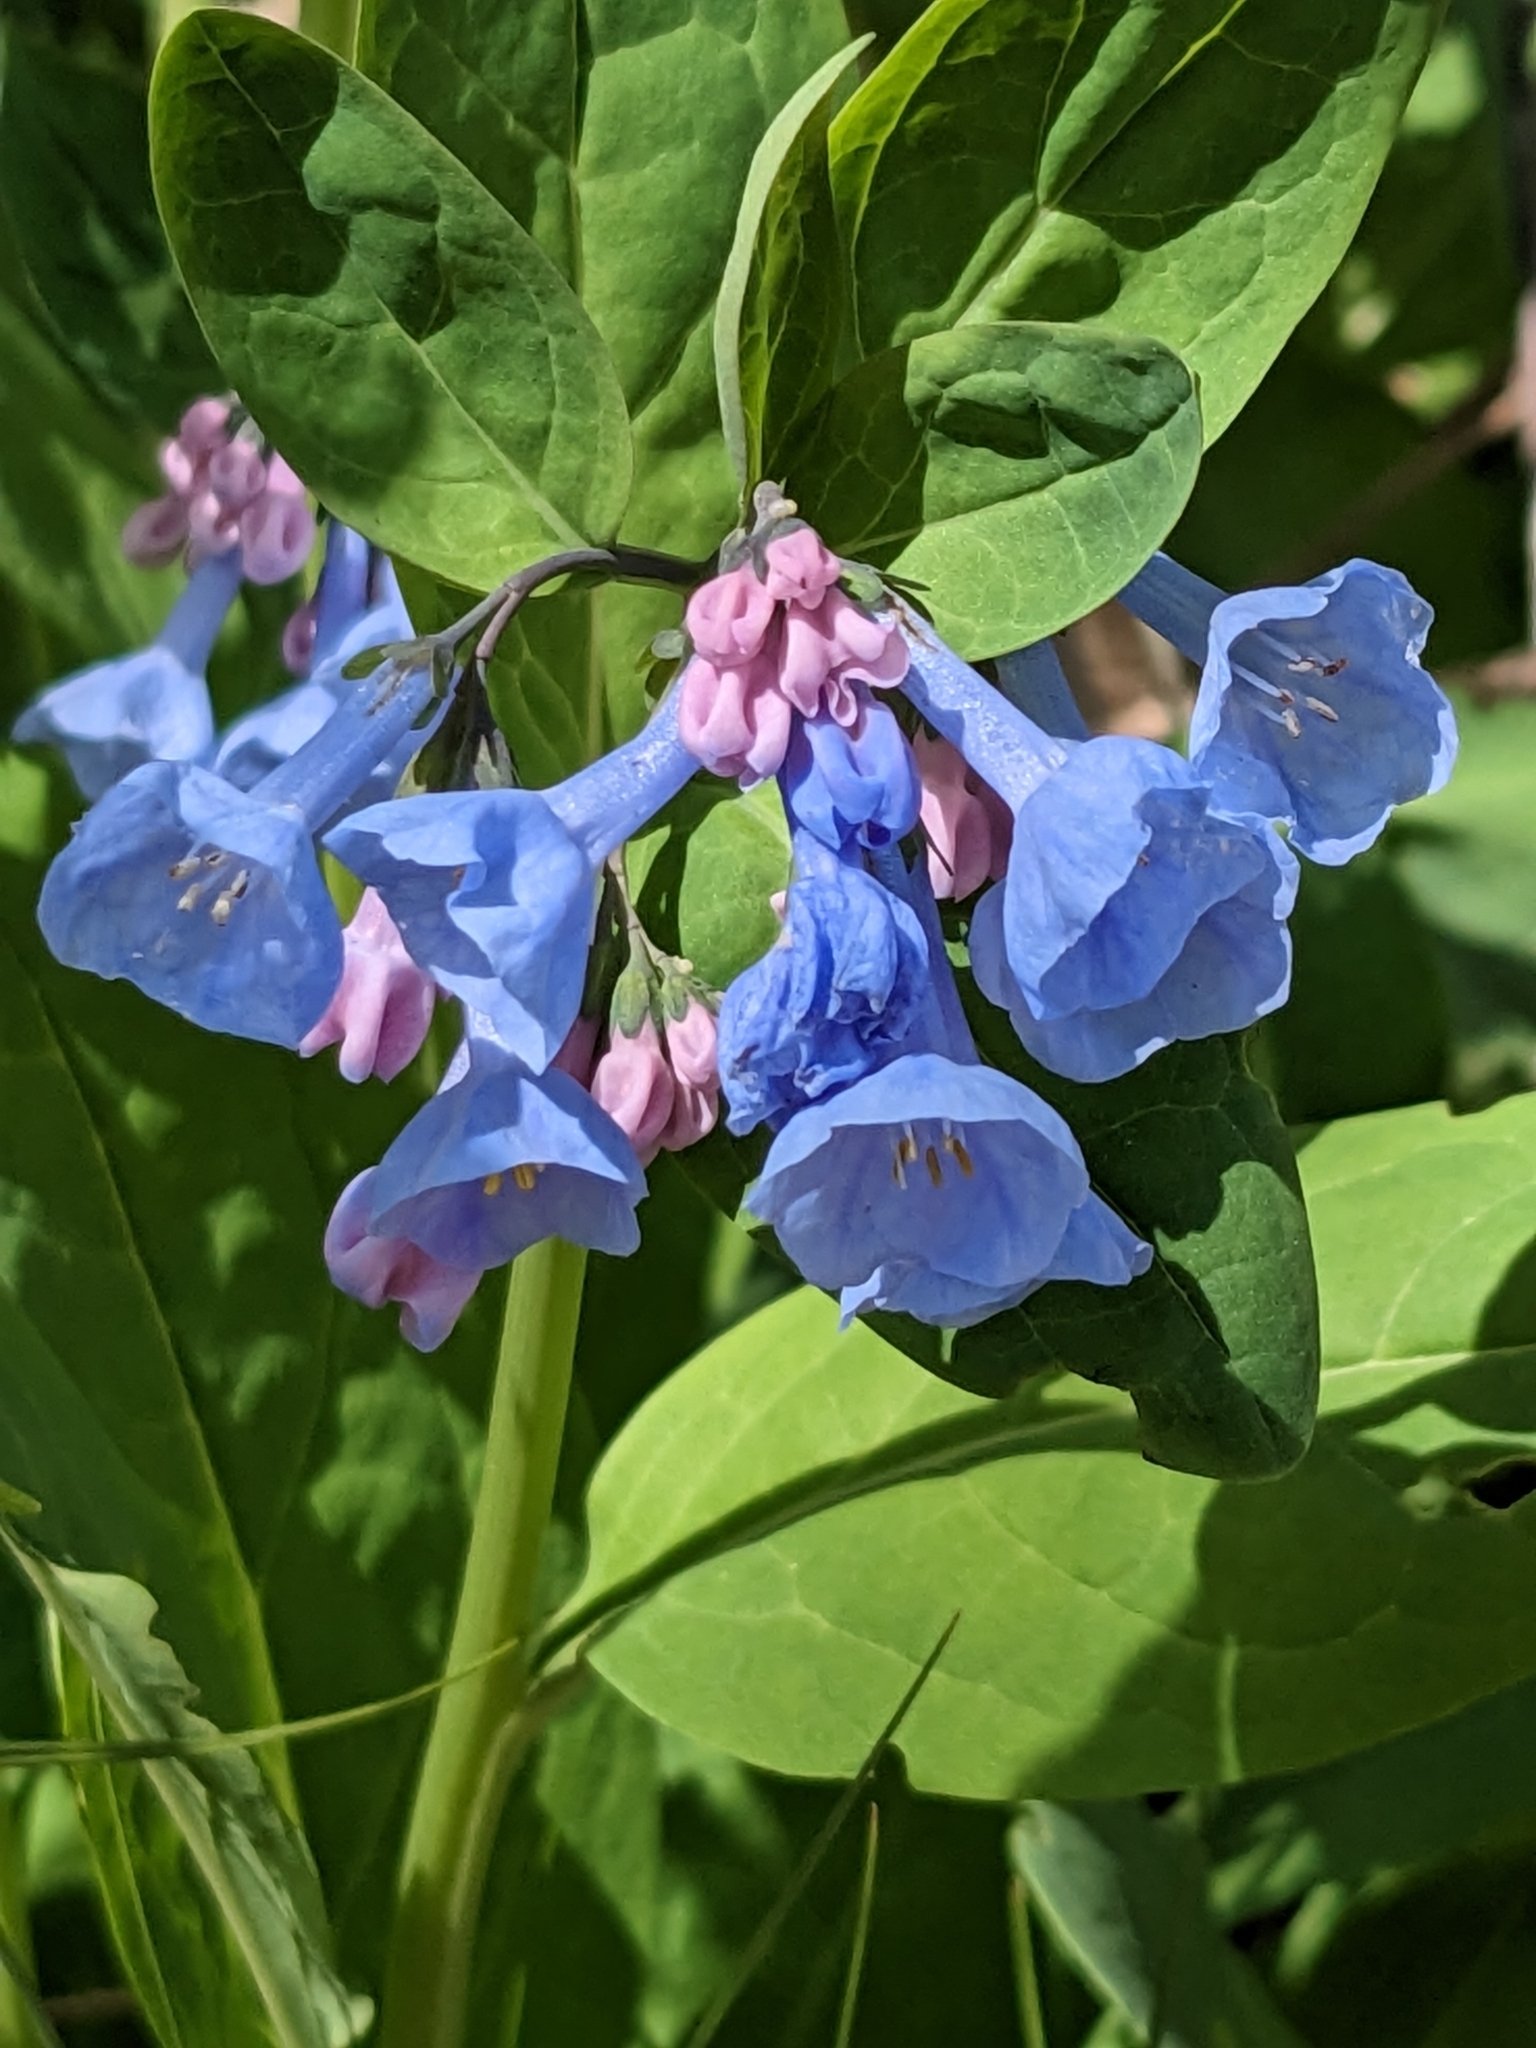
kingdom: Plantae
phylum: Tracheophyta
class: Magnoliopsida
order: Boraginales
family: Boraginaceae
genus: Mertensia
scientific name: Mertensia virginica
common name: Virginia bluebells
